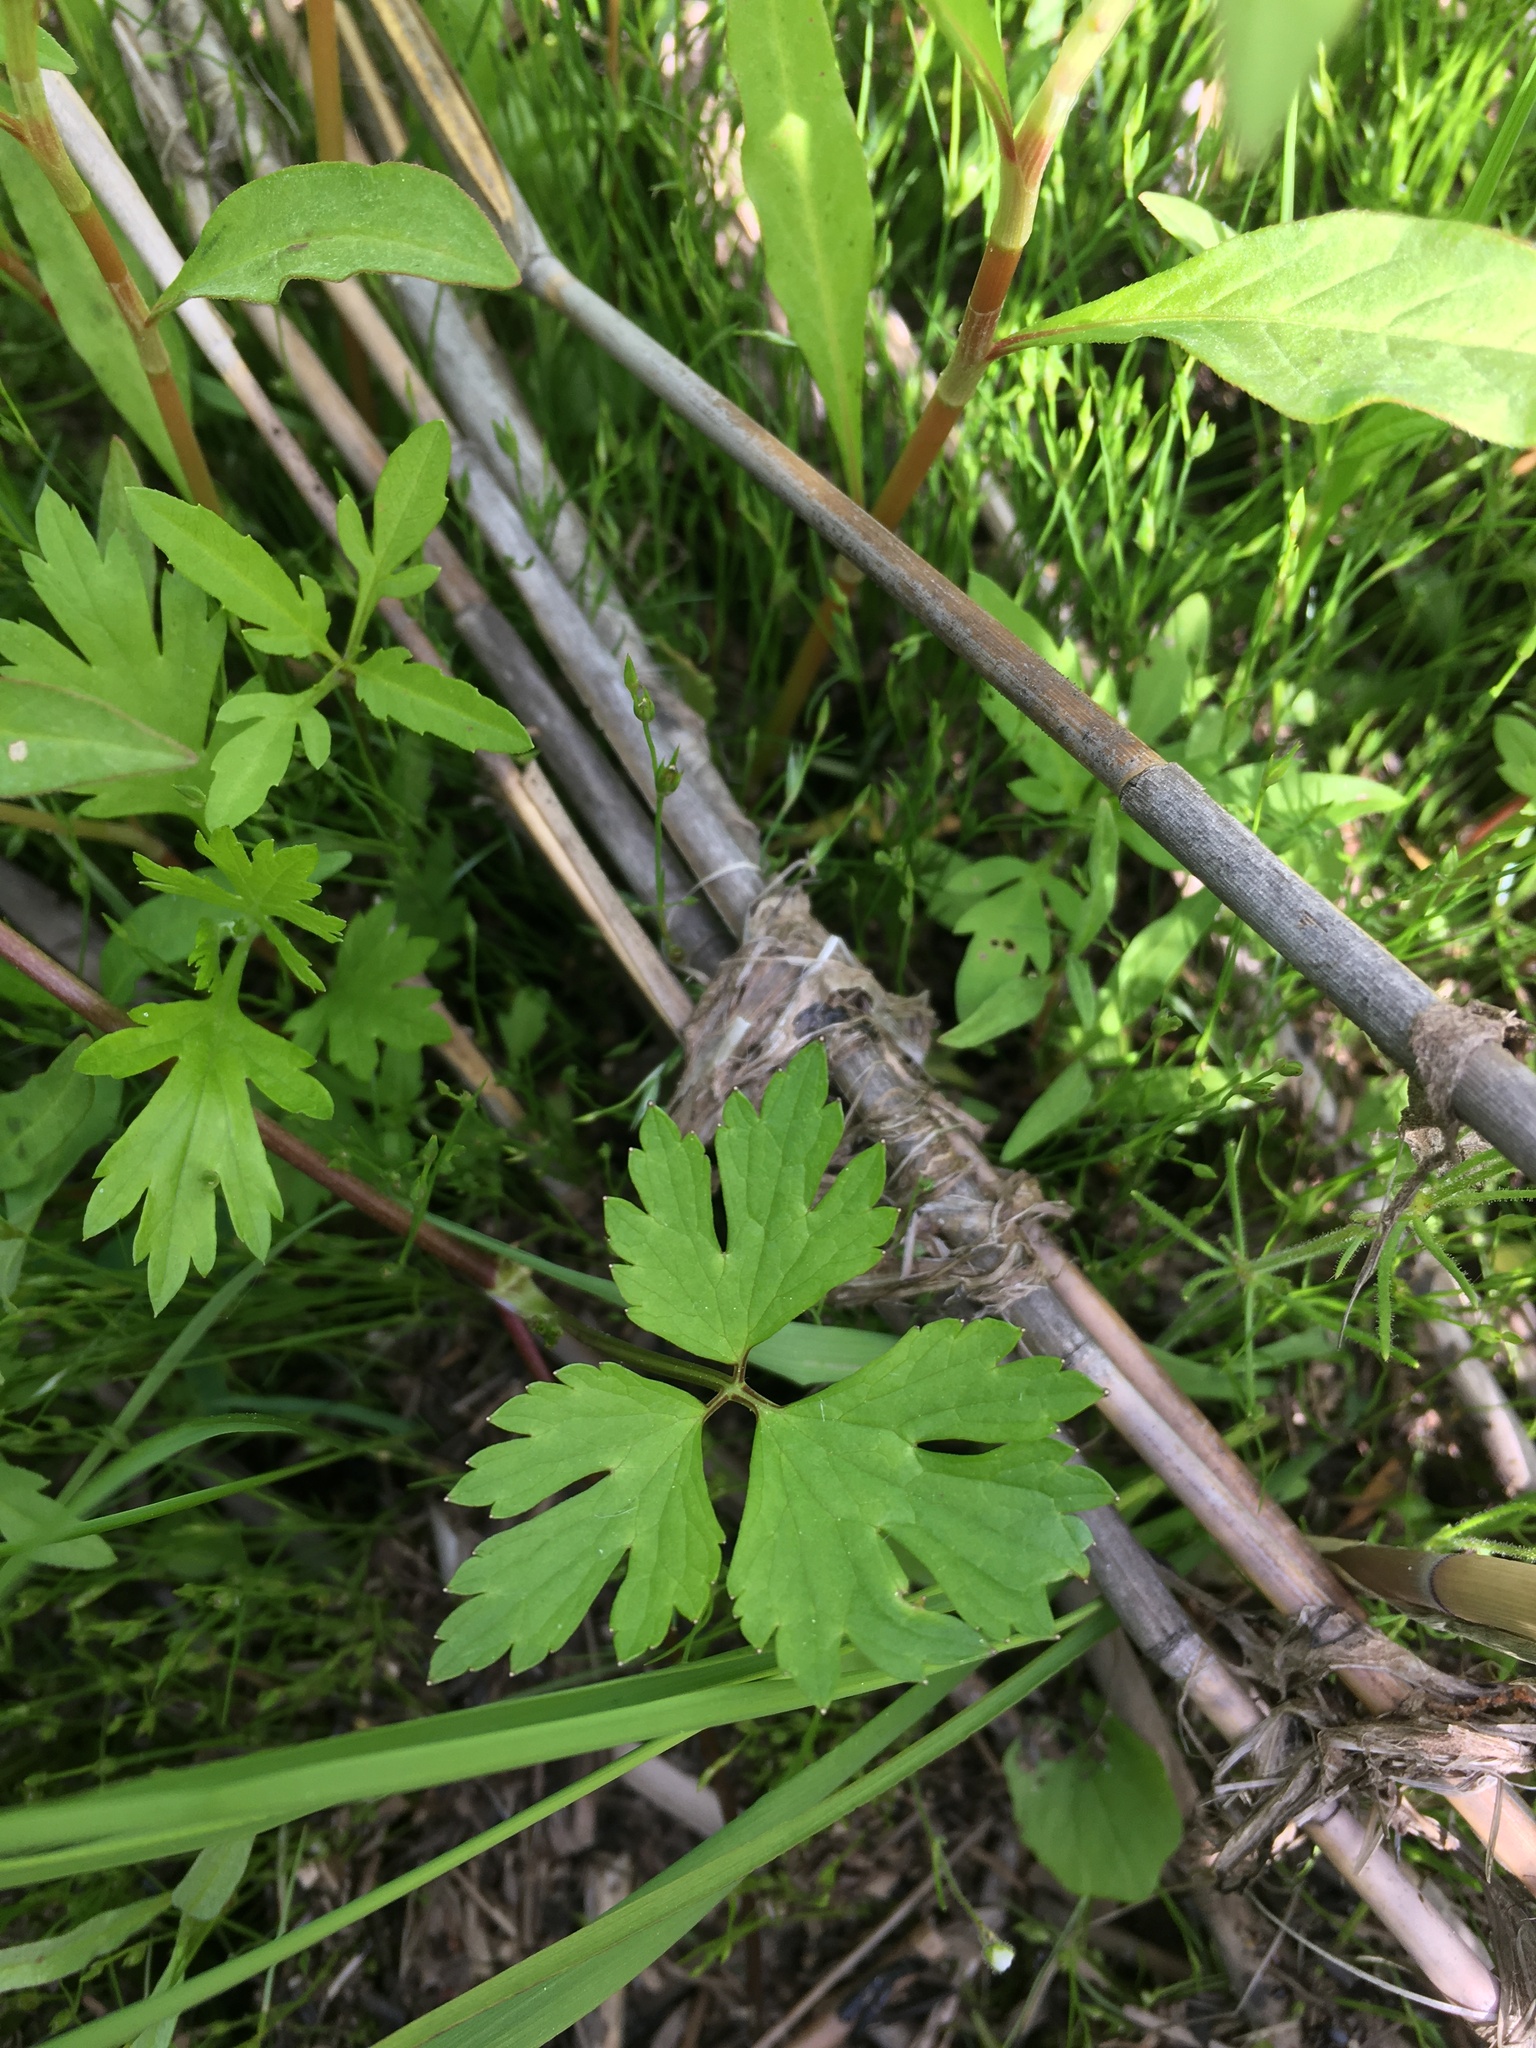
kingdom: Plantae
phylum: Tracheophyta
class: Magnoliopsida
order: Ranunculales
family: Ranunculaceae
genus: Ranunculus
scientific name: Ranunculus repens
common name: Creeping buttercup
